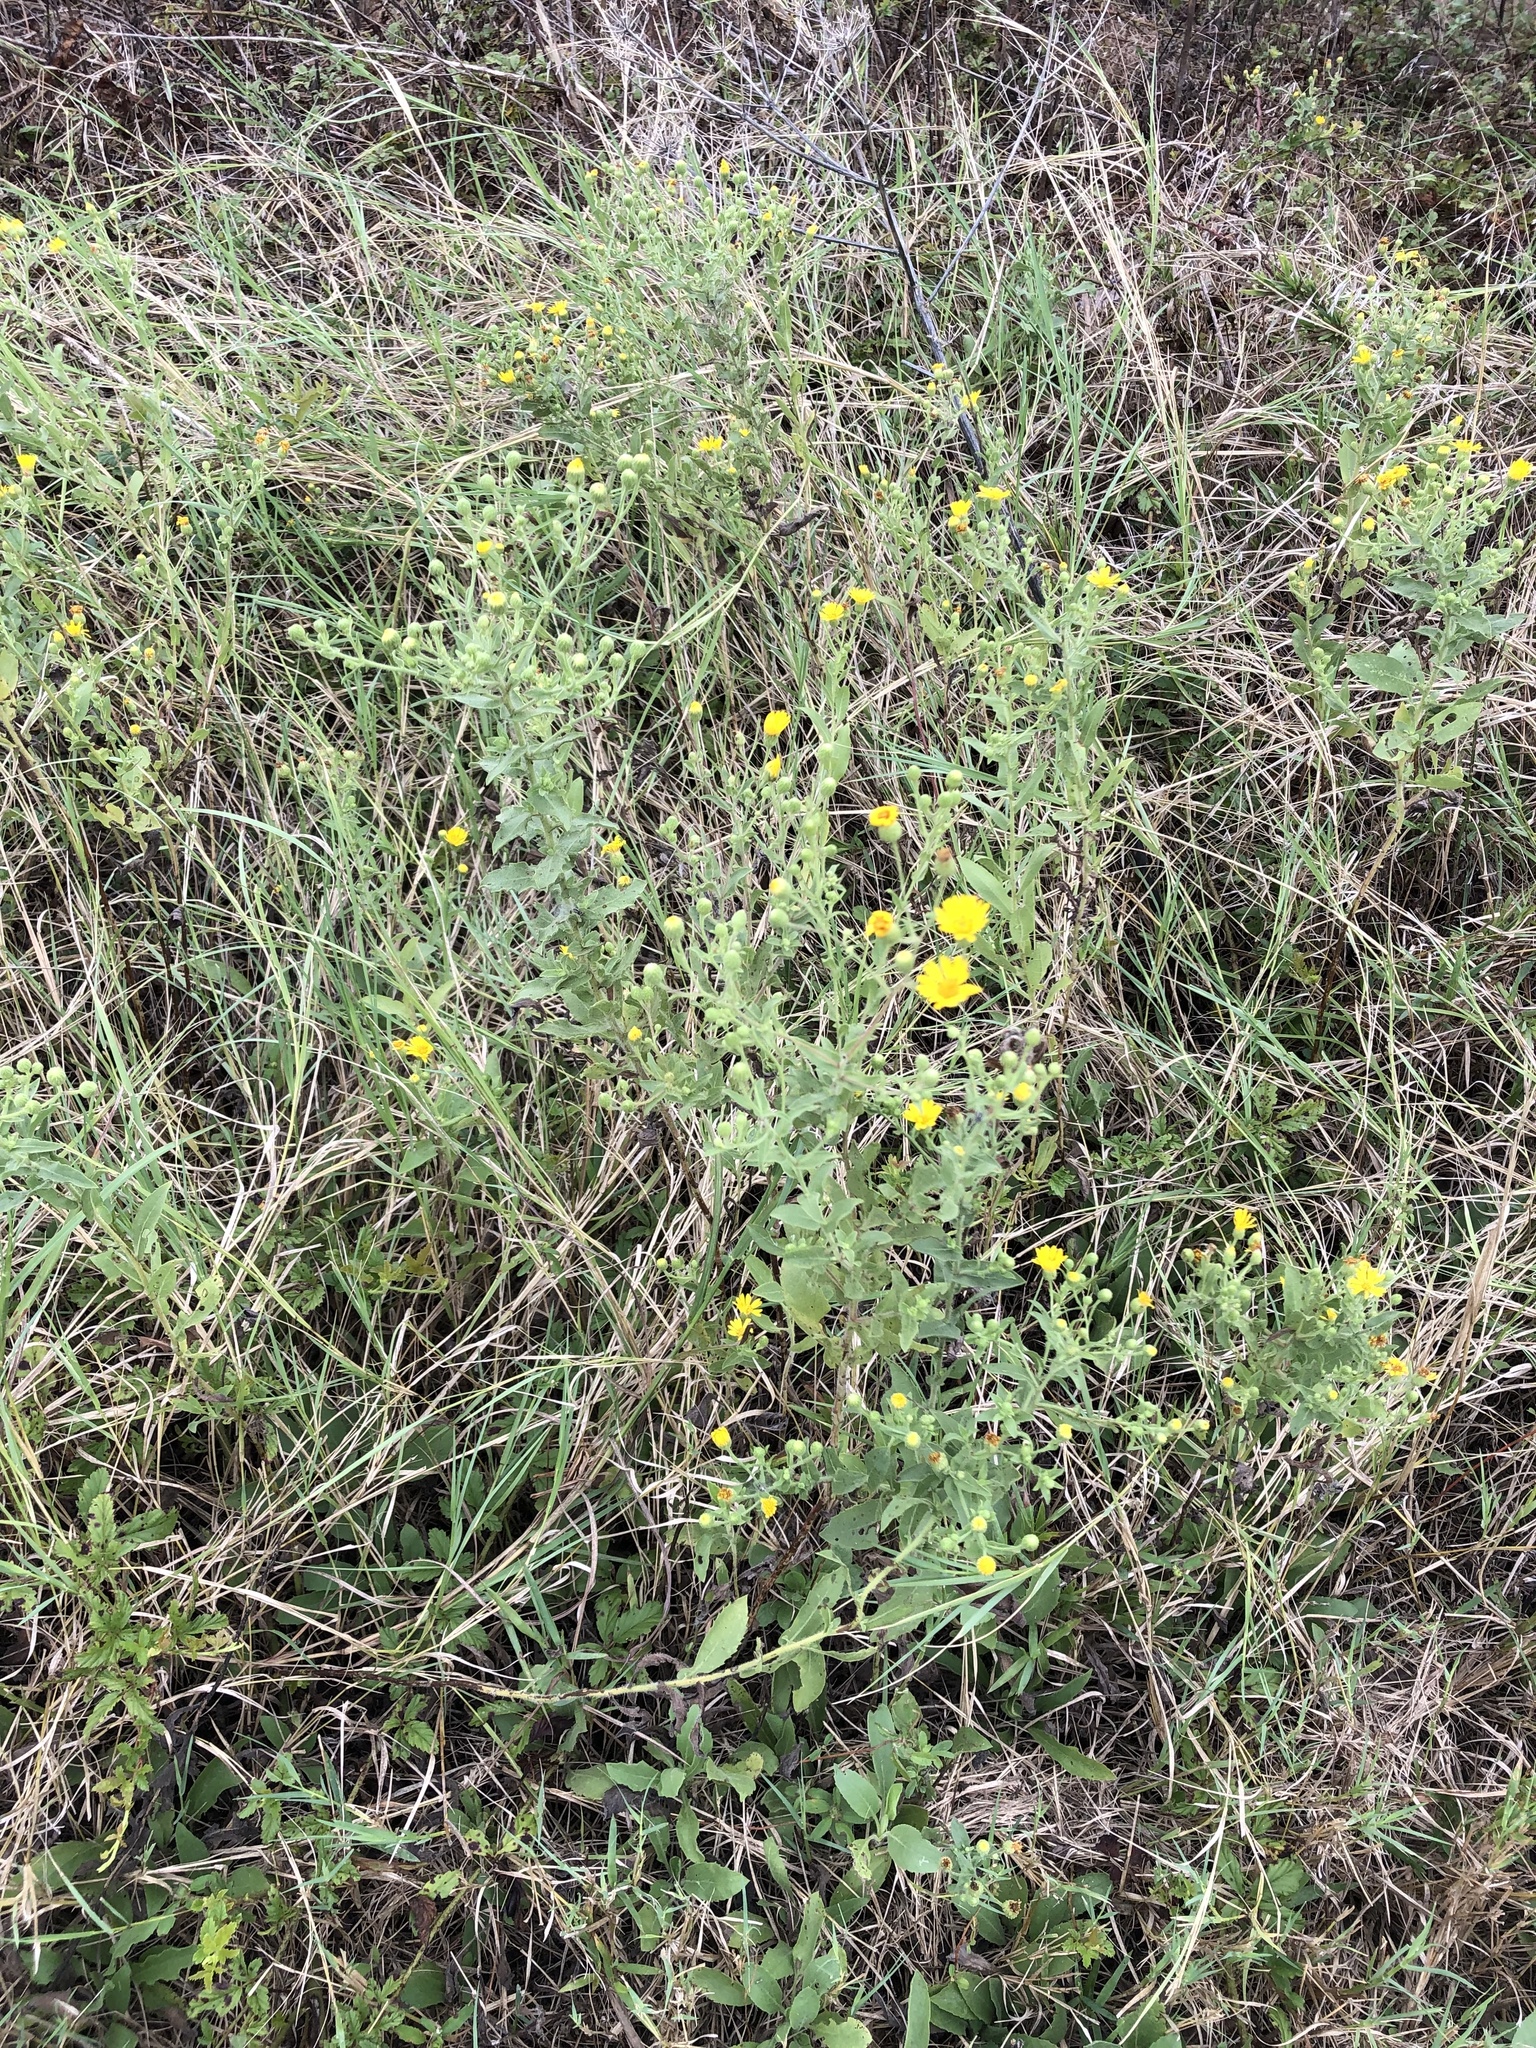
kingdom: Plantae
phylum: Tracheophyta
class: Magnoliopsida
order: Asterales
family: Asteraceae
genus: Heterotheca
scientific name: Heterotheca subaxillaris
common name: Camphorweed
